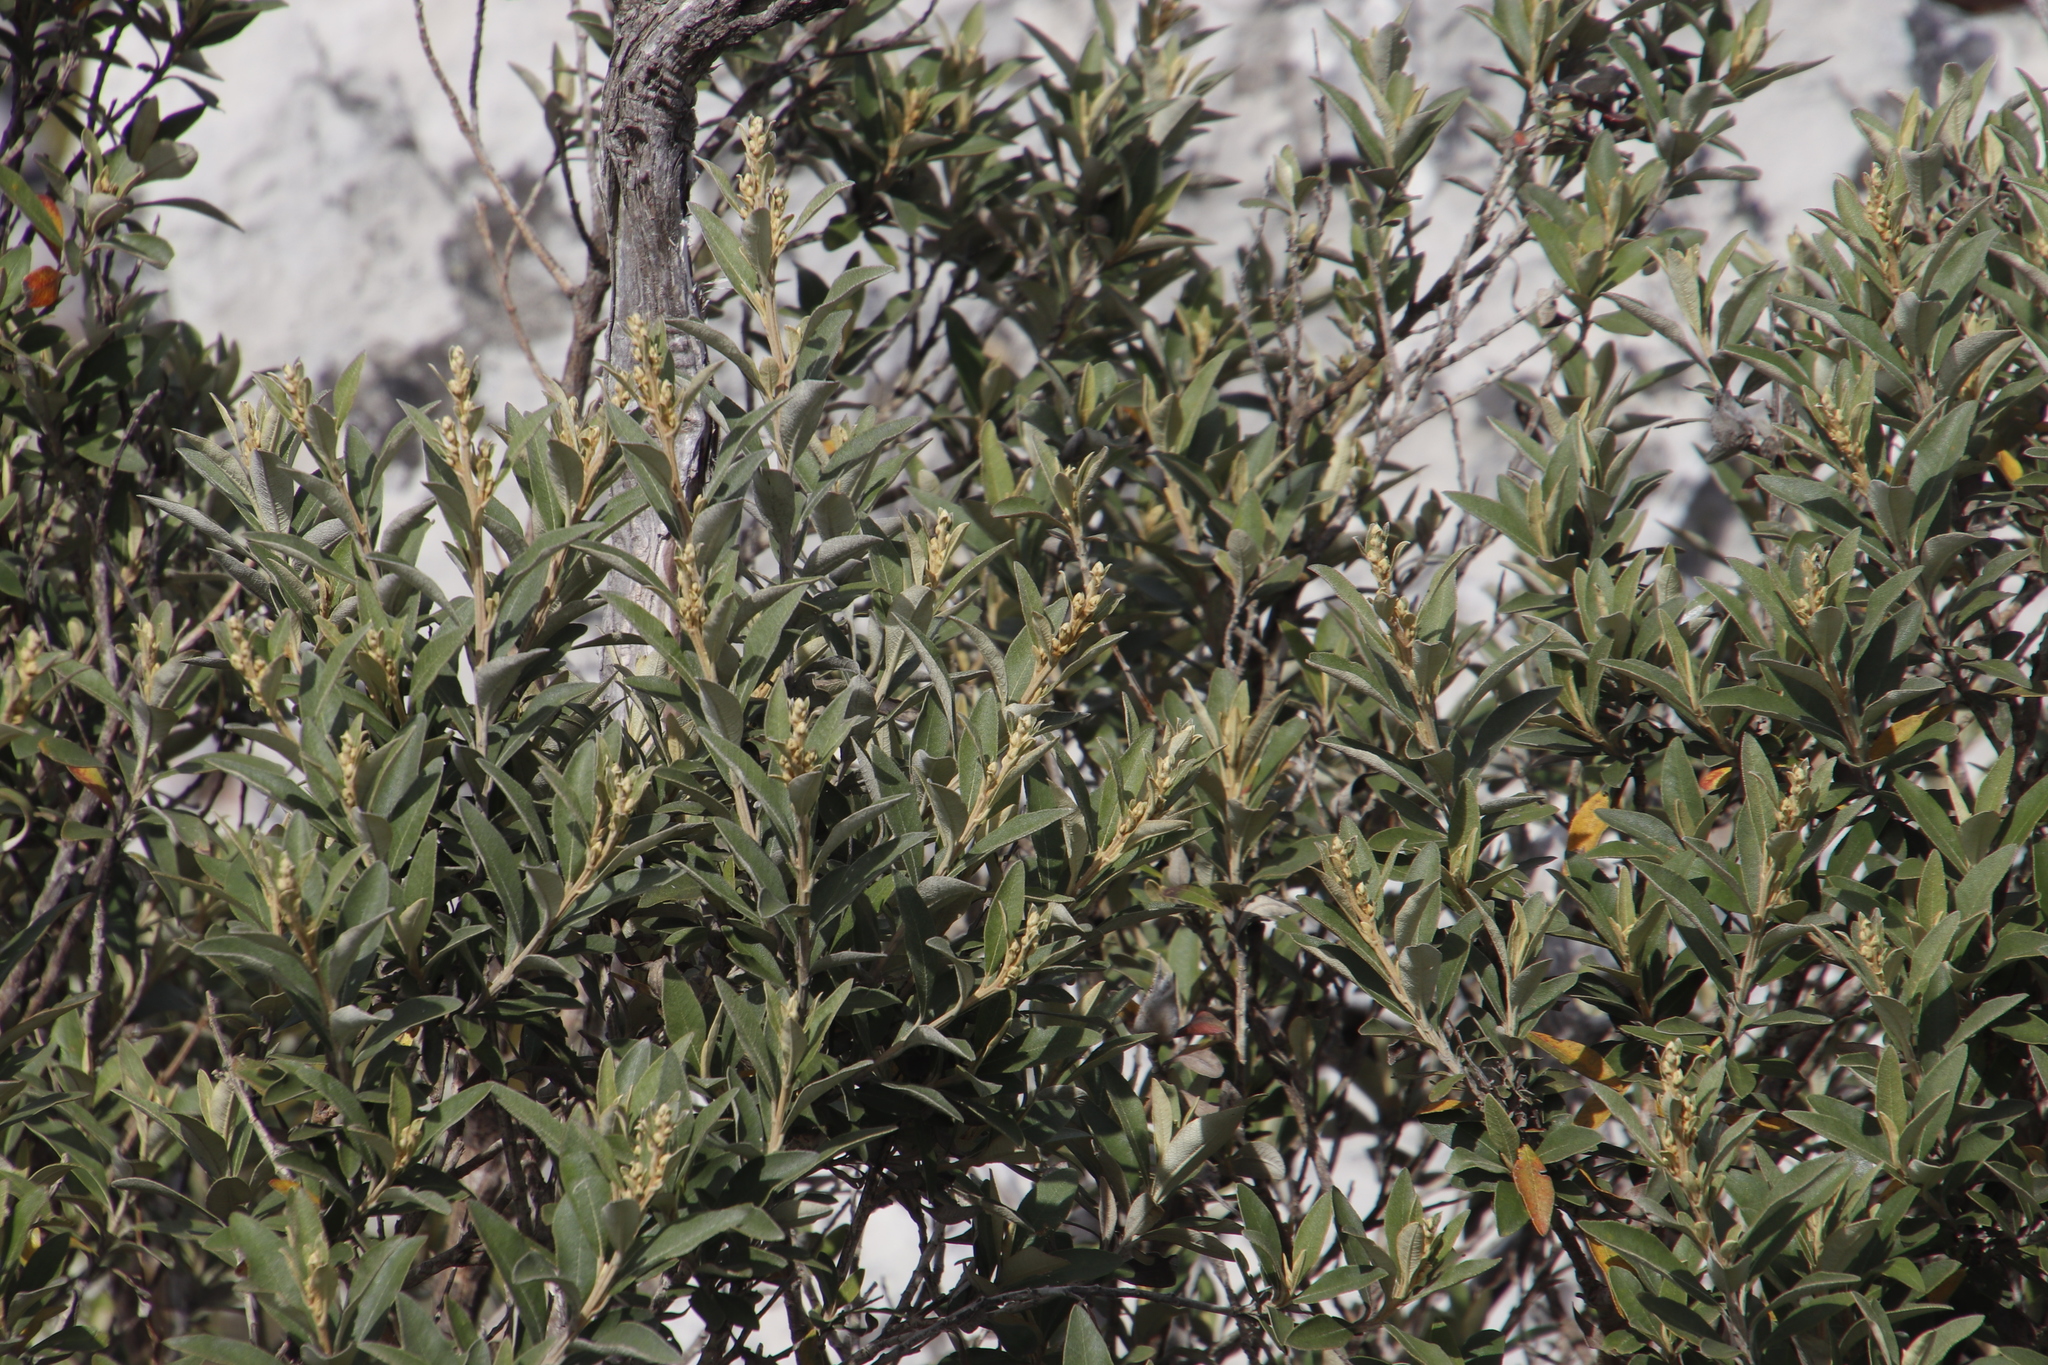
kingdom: Plantae
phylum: Tracheophyta
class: Magnoliopsida
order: Asterales
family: Asteraceae
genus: Tarchonanthus
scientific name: Tarchonanthus littoralis
